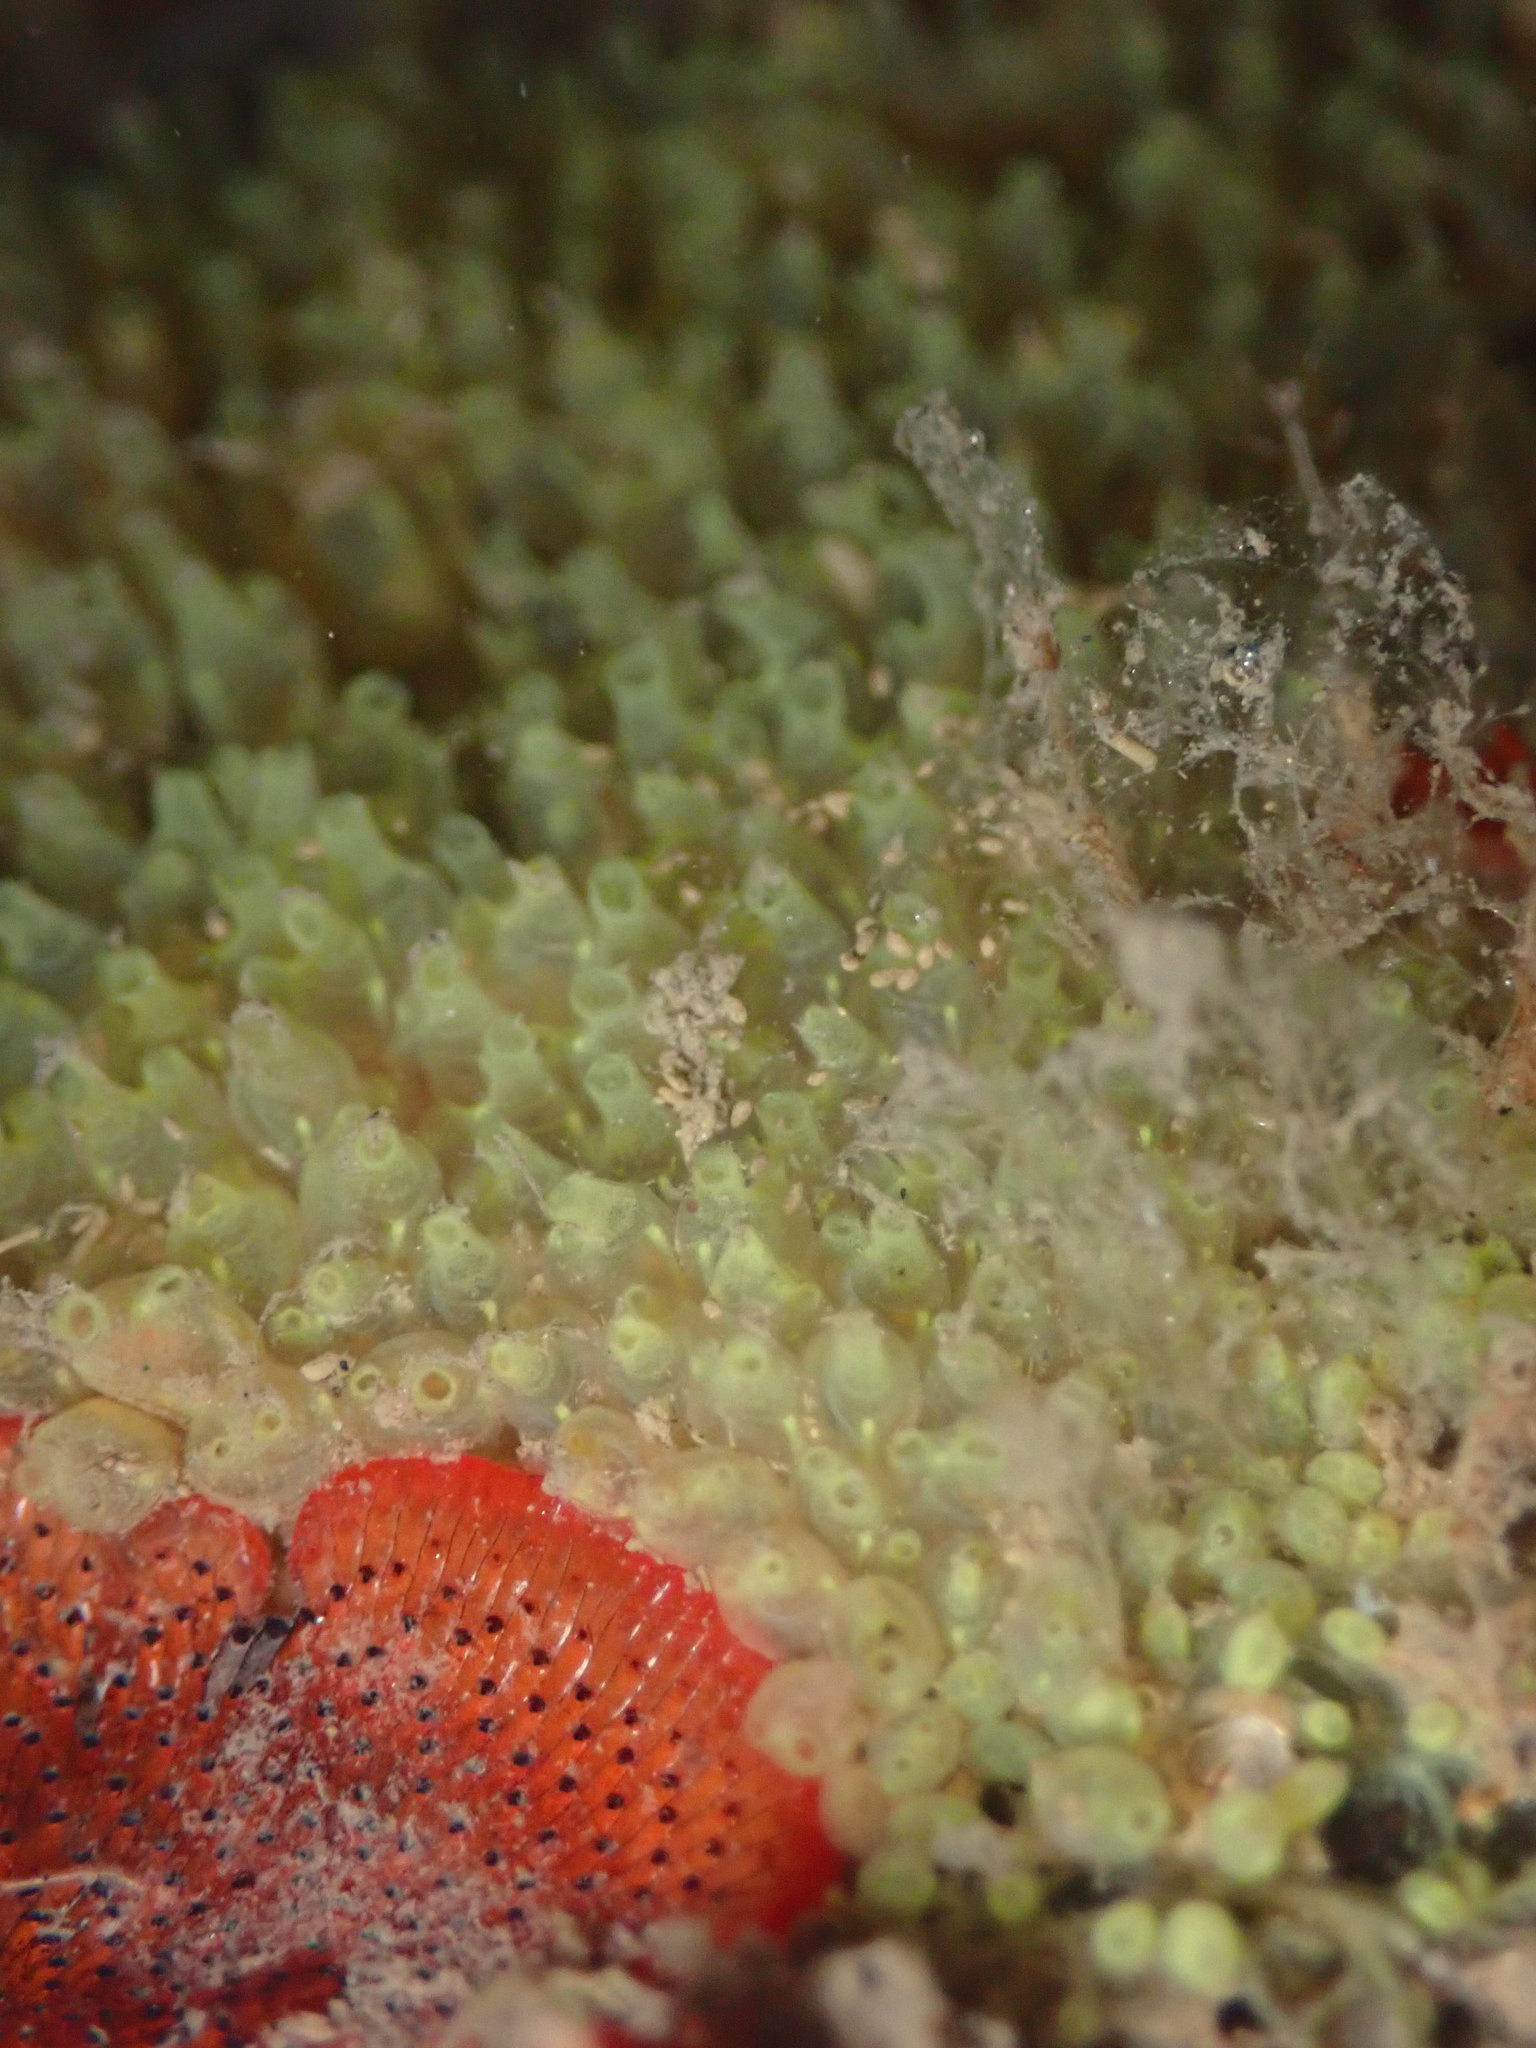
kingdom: Animalia
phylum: Chordata
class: Ascidiacea
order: Phlebobranchia
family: Perophoridae
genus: Perophora
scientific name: Perophora annectens
